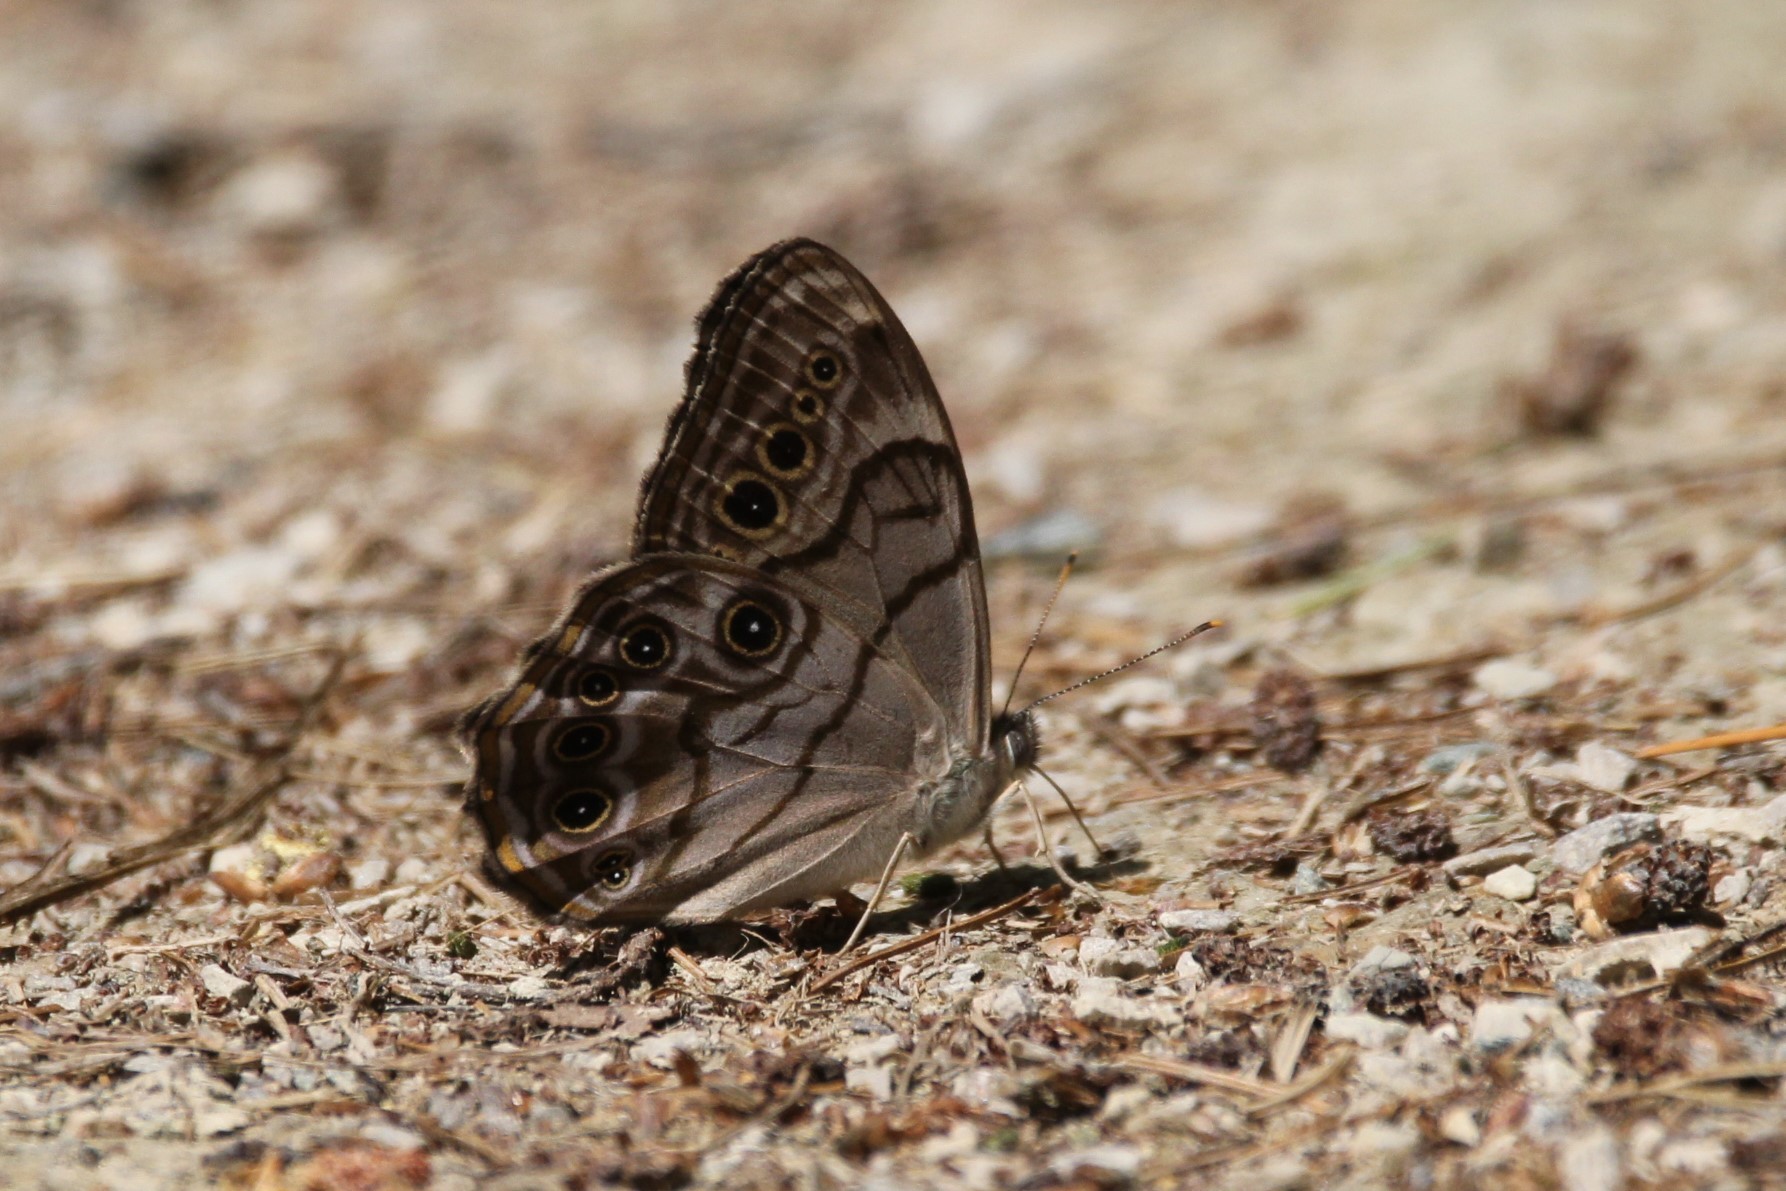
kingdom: Animalia
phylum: Arthropoda
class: Insecta
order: Lepidoptera
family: Nymphalidae
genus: Lethe
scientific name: Lethe anthedon
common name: Northern pearly-eye
